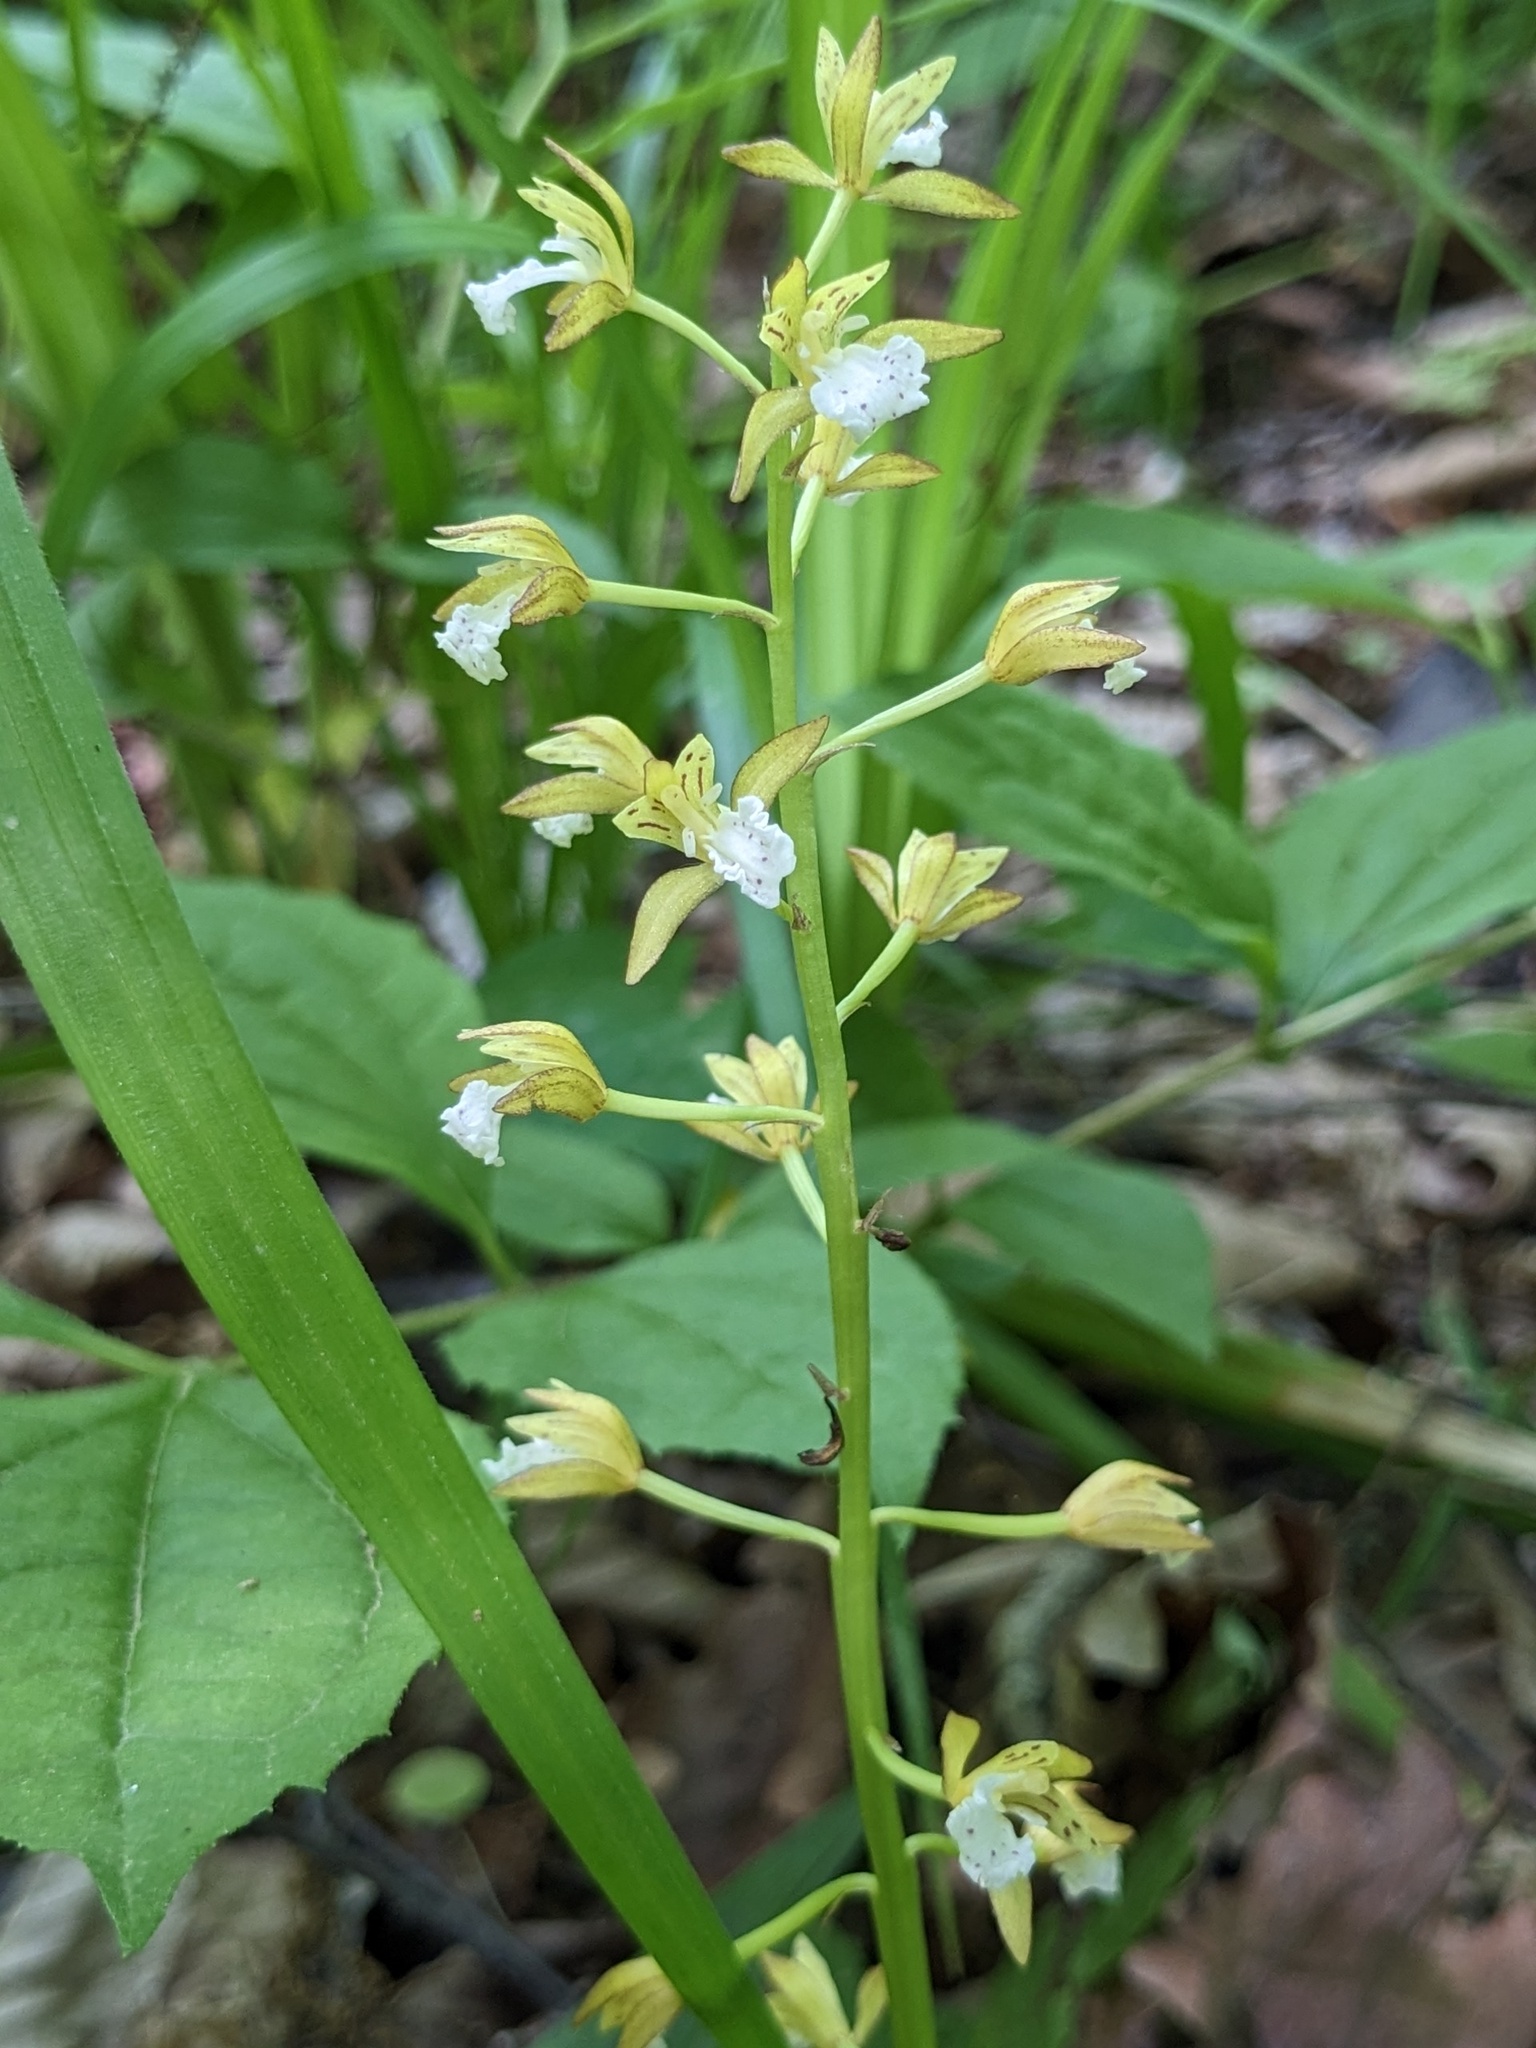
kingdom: Plantae
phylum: Tracheophyta
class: Liliopsida
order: Asparagales
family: Orchidaceae
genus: Oreorchis
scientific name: Oreorchis patens
